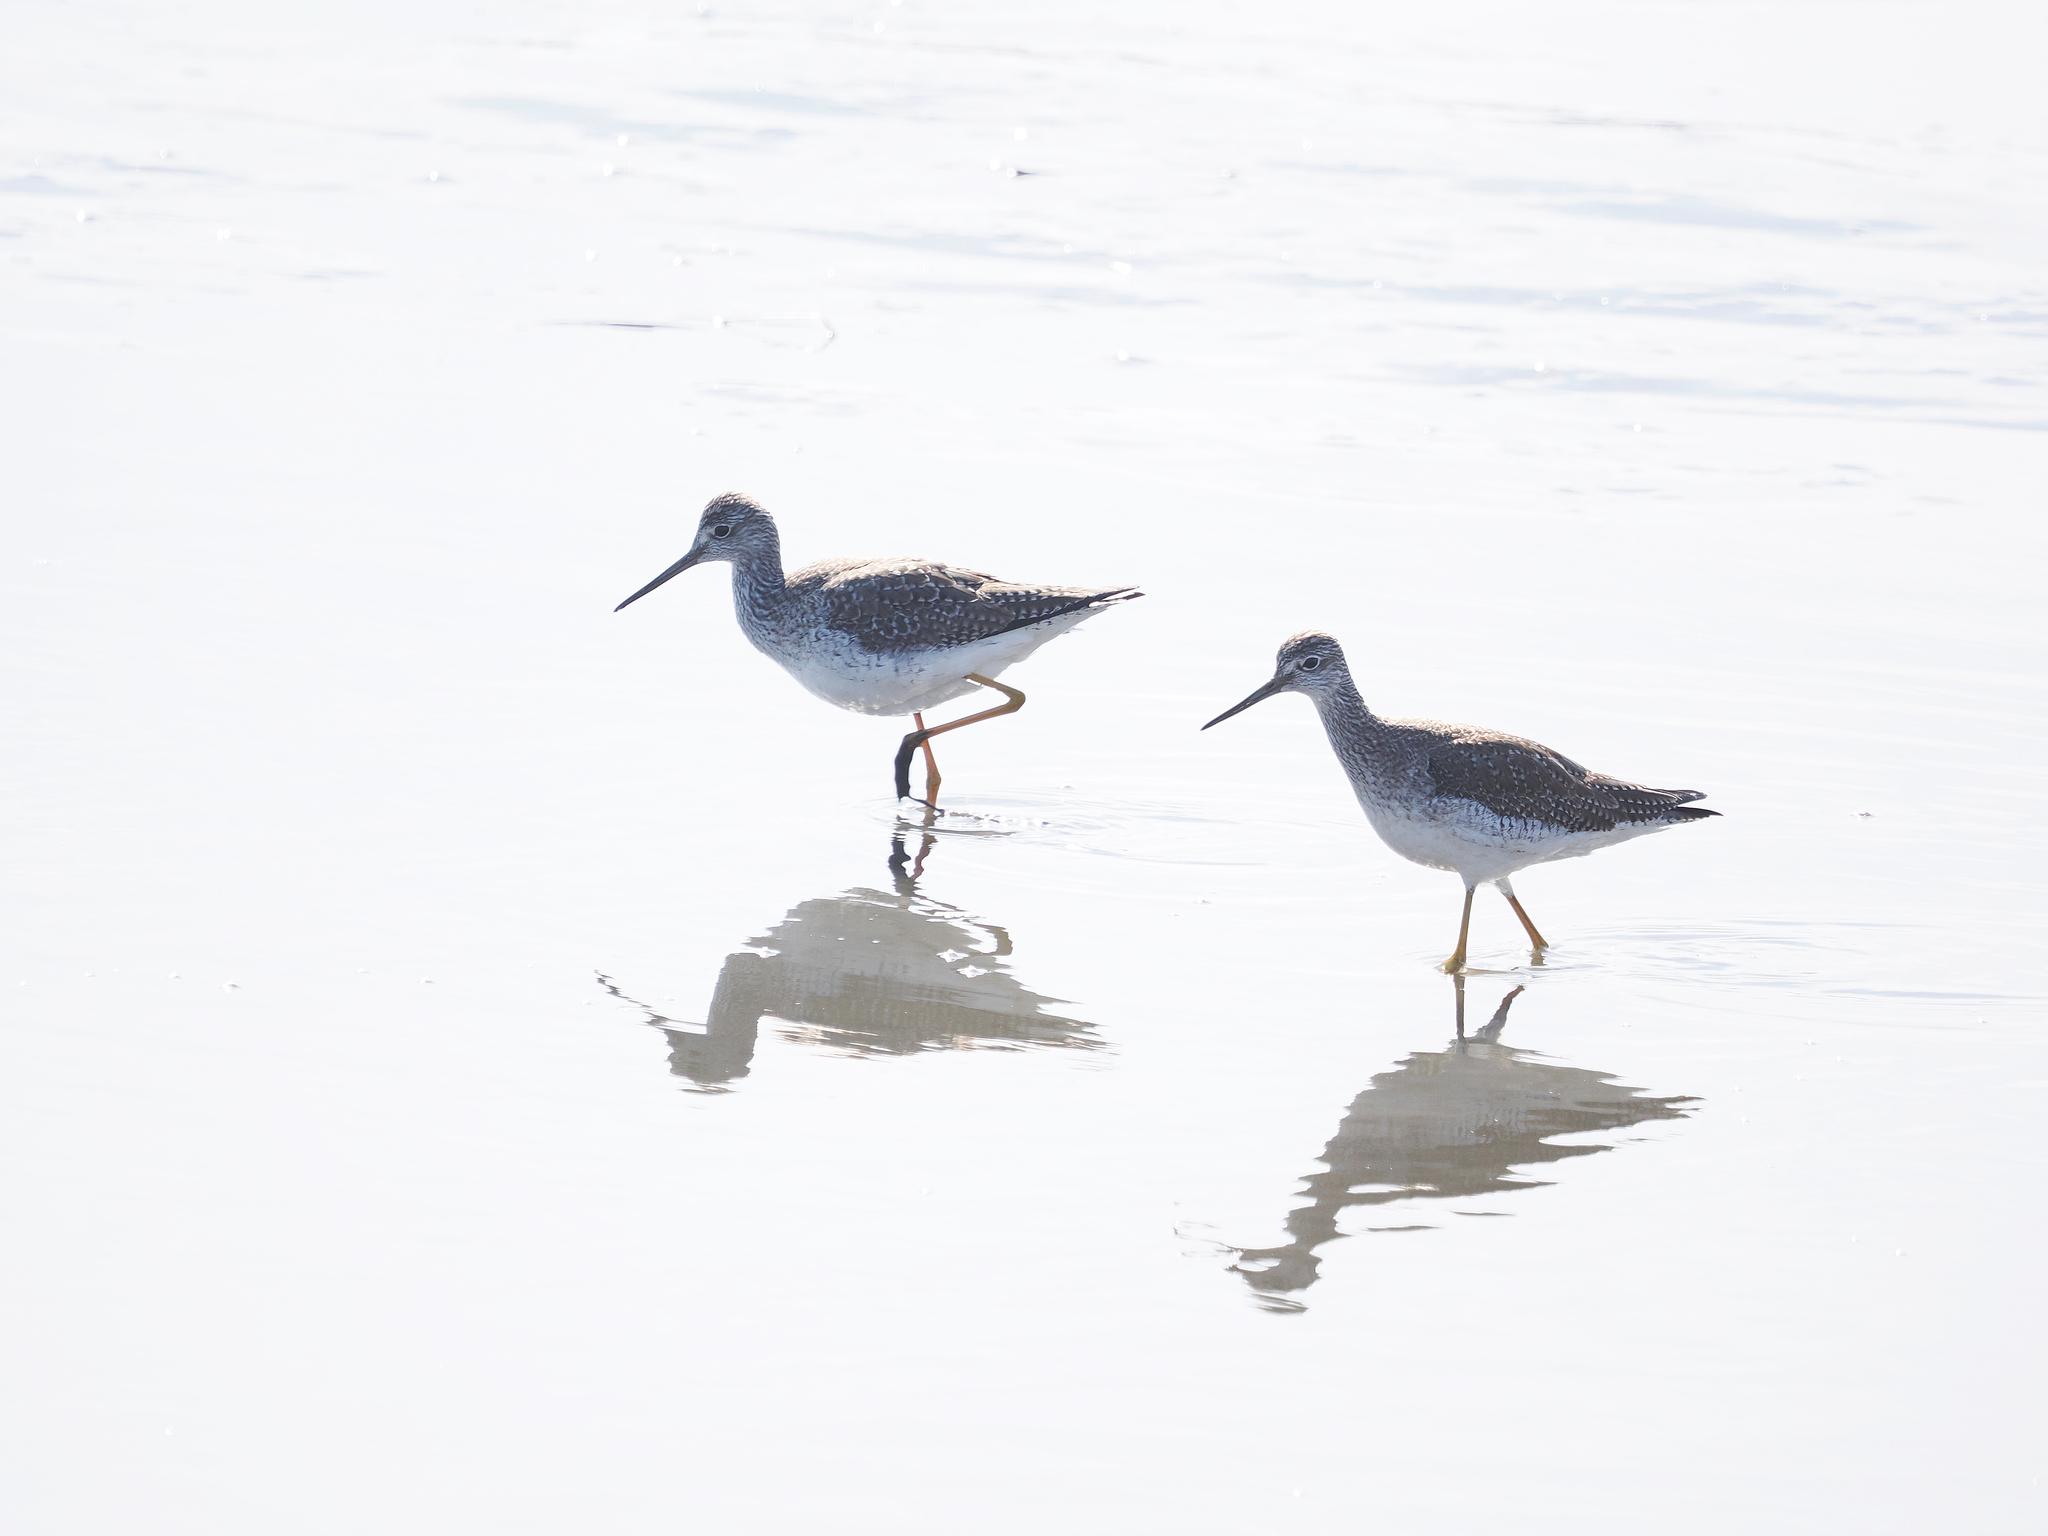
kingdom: Animalia
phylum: Chordata
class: Aves
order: Charadriiformes
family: Scolopacidae
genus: Tringa
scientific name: Tringa melanoleuca
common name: Greater yellowlegs
